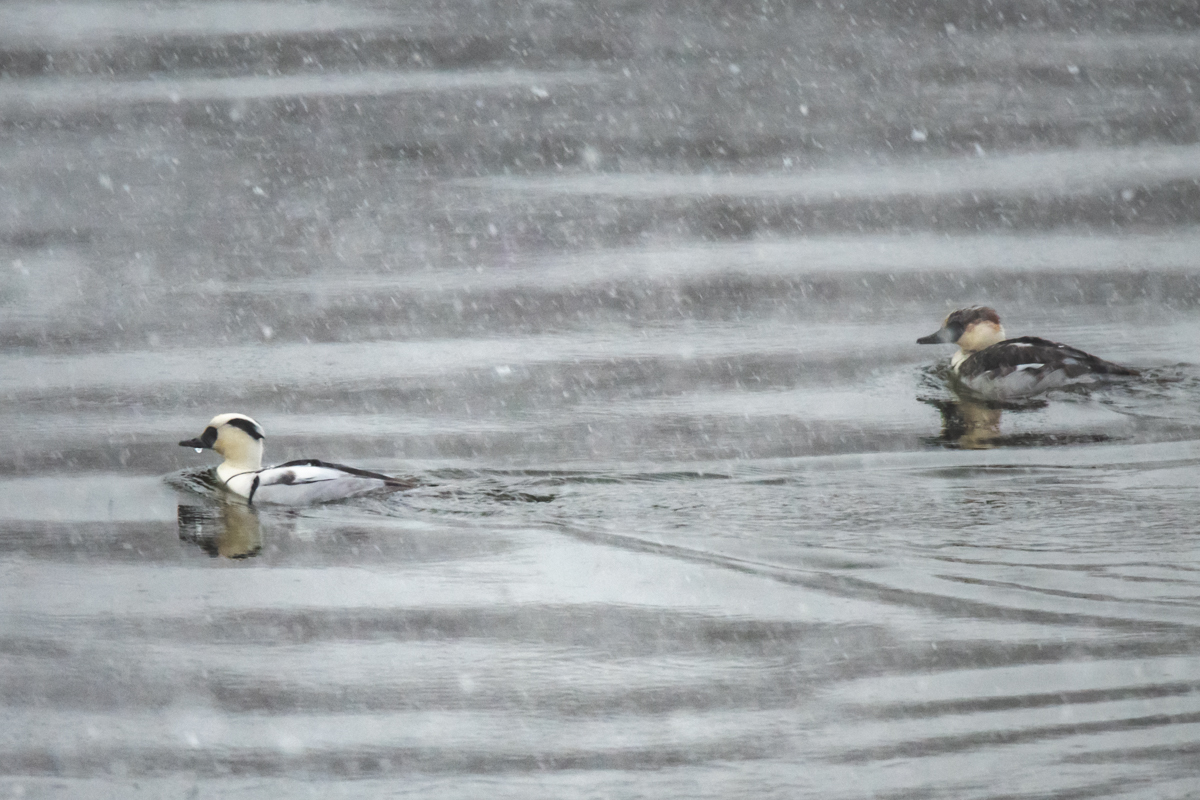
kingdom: Animalia
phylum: Chordata
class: Aves
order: Anseriformes
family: Anatidae
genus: Mergellus
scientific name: Mergellus albellus
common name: Smew
